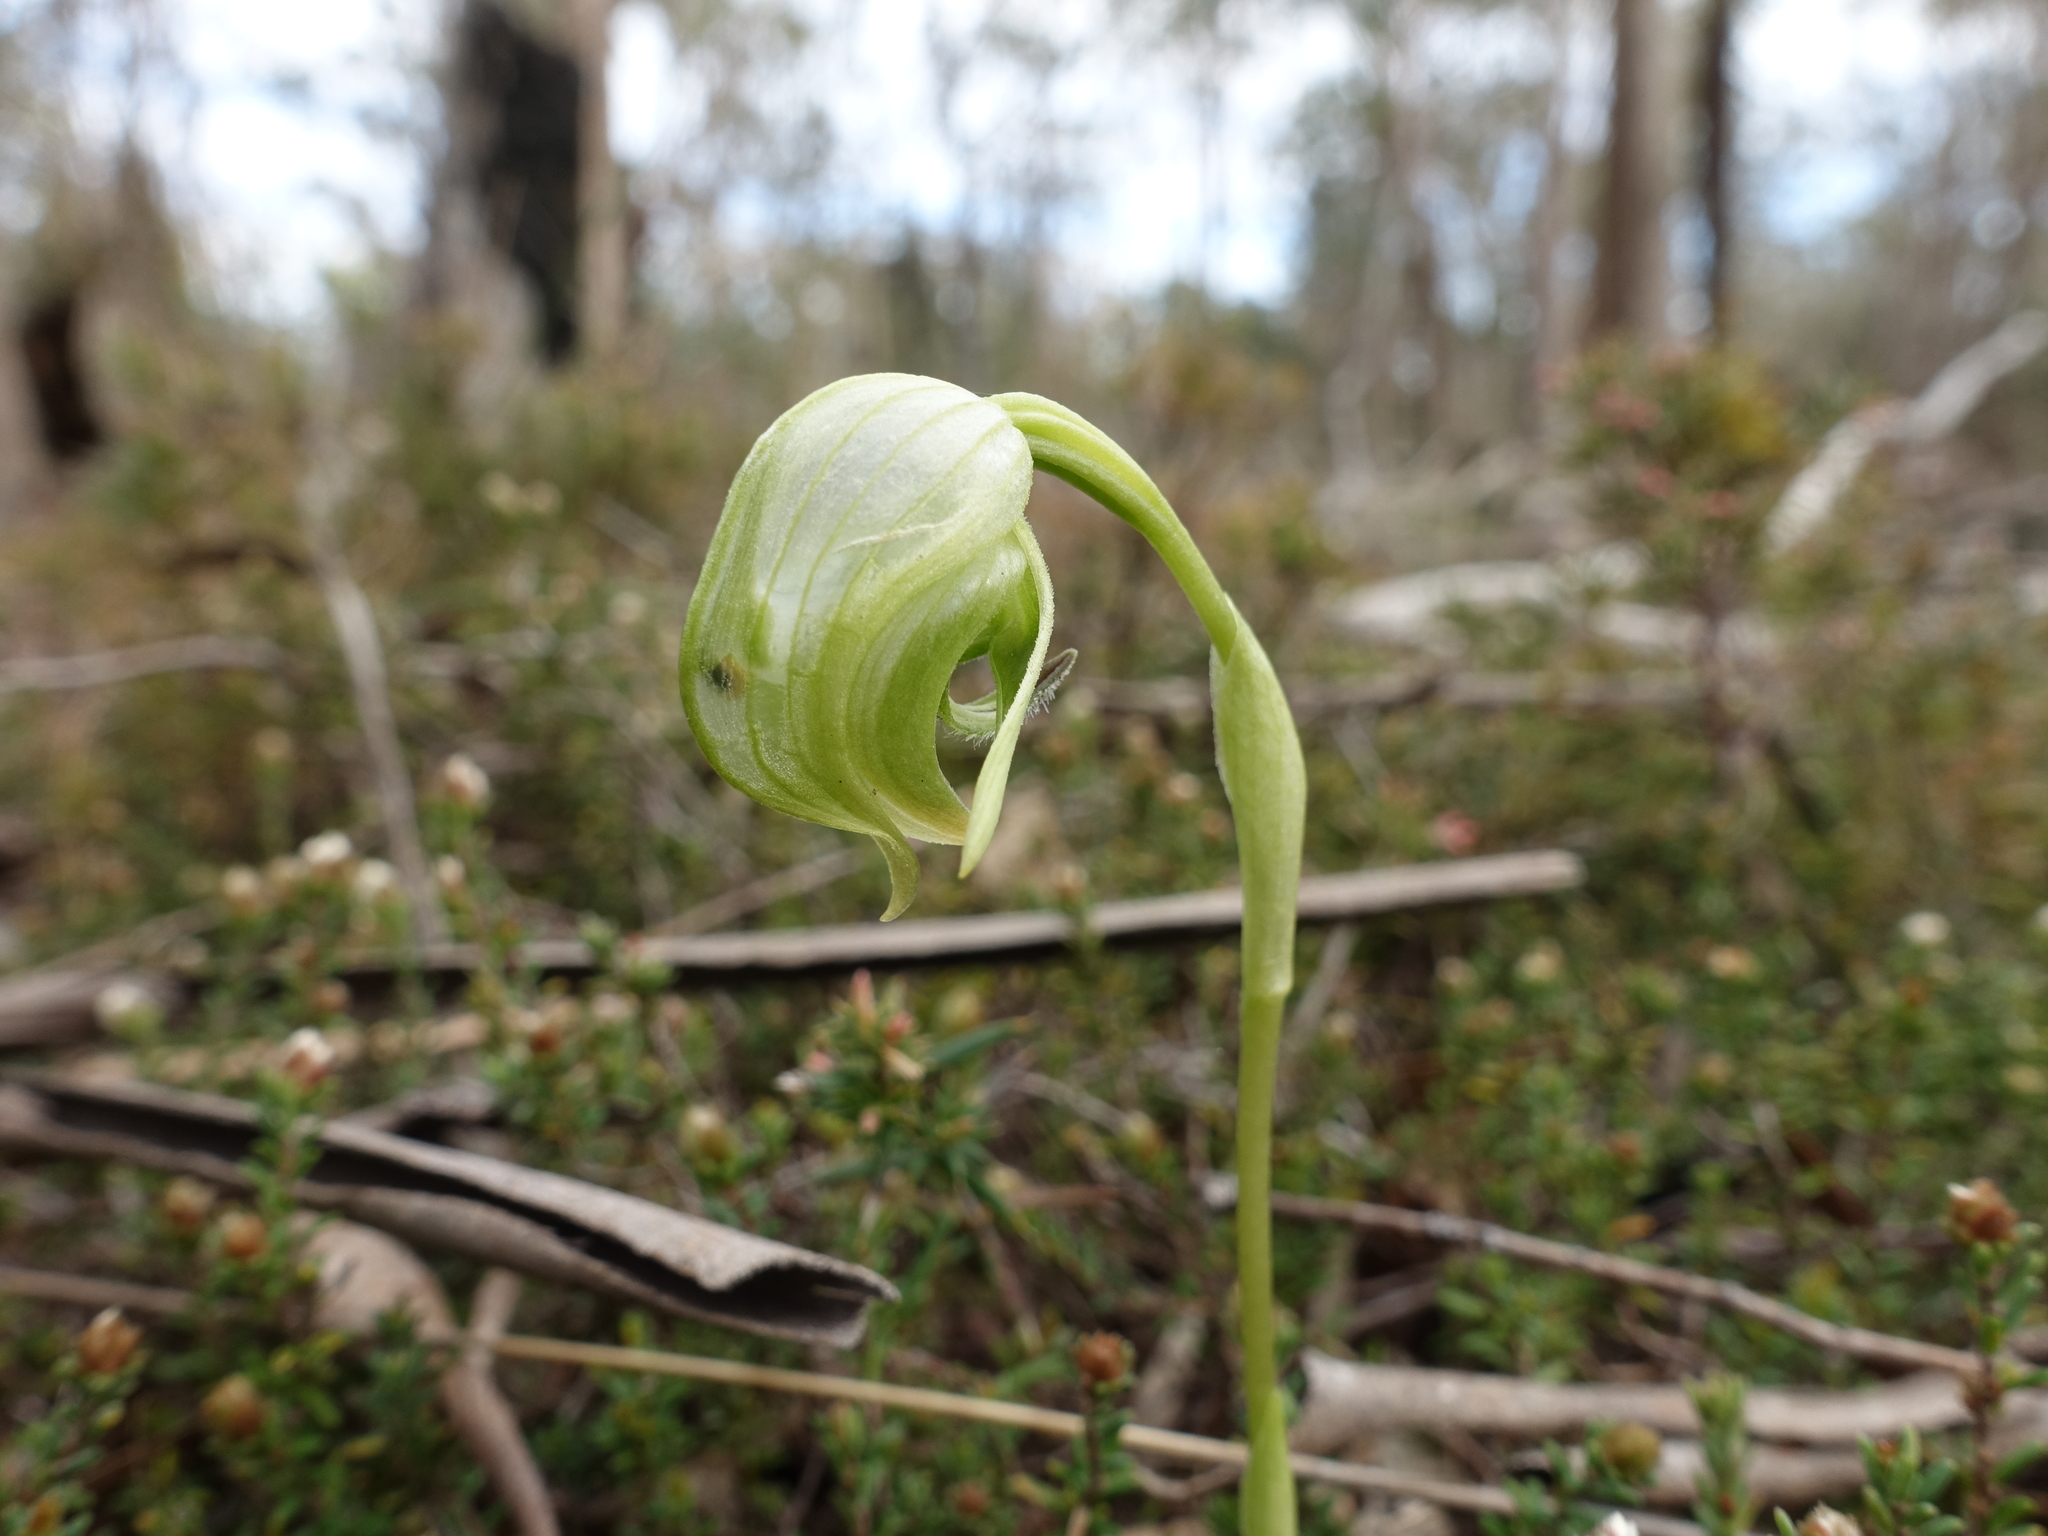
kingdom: Plantae
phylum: Tracheophyta
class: Liliopsida
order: Asparagales
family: Orchidaceae
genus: Pterostylis
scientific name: Pterostylis nutans
